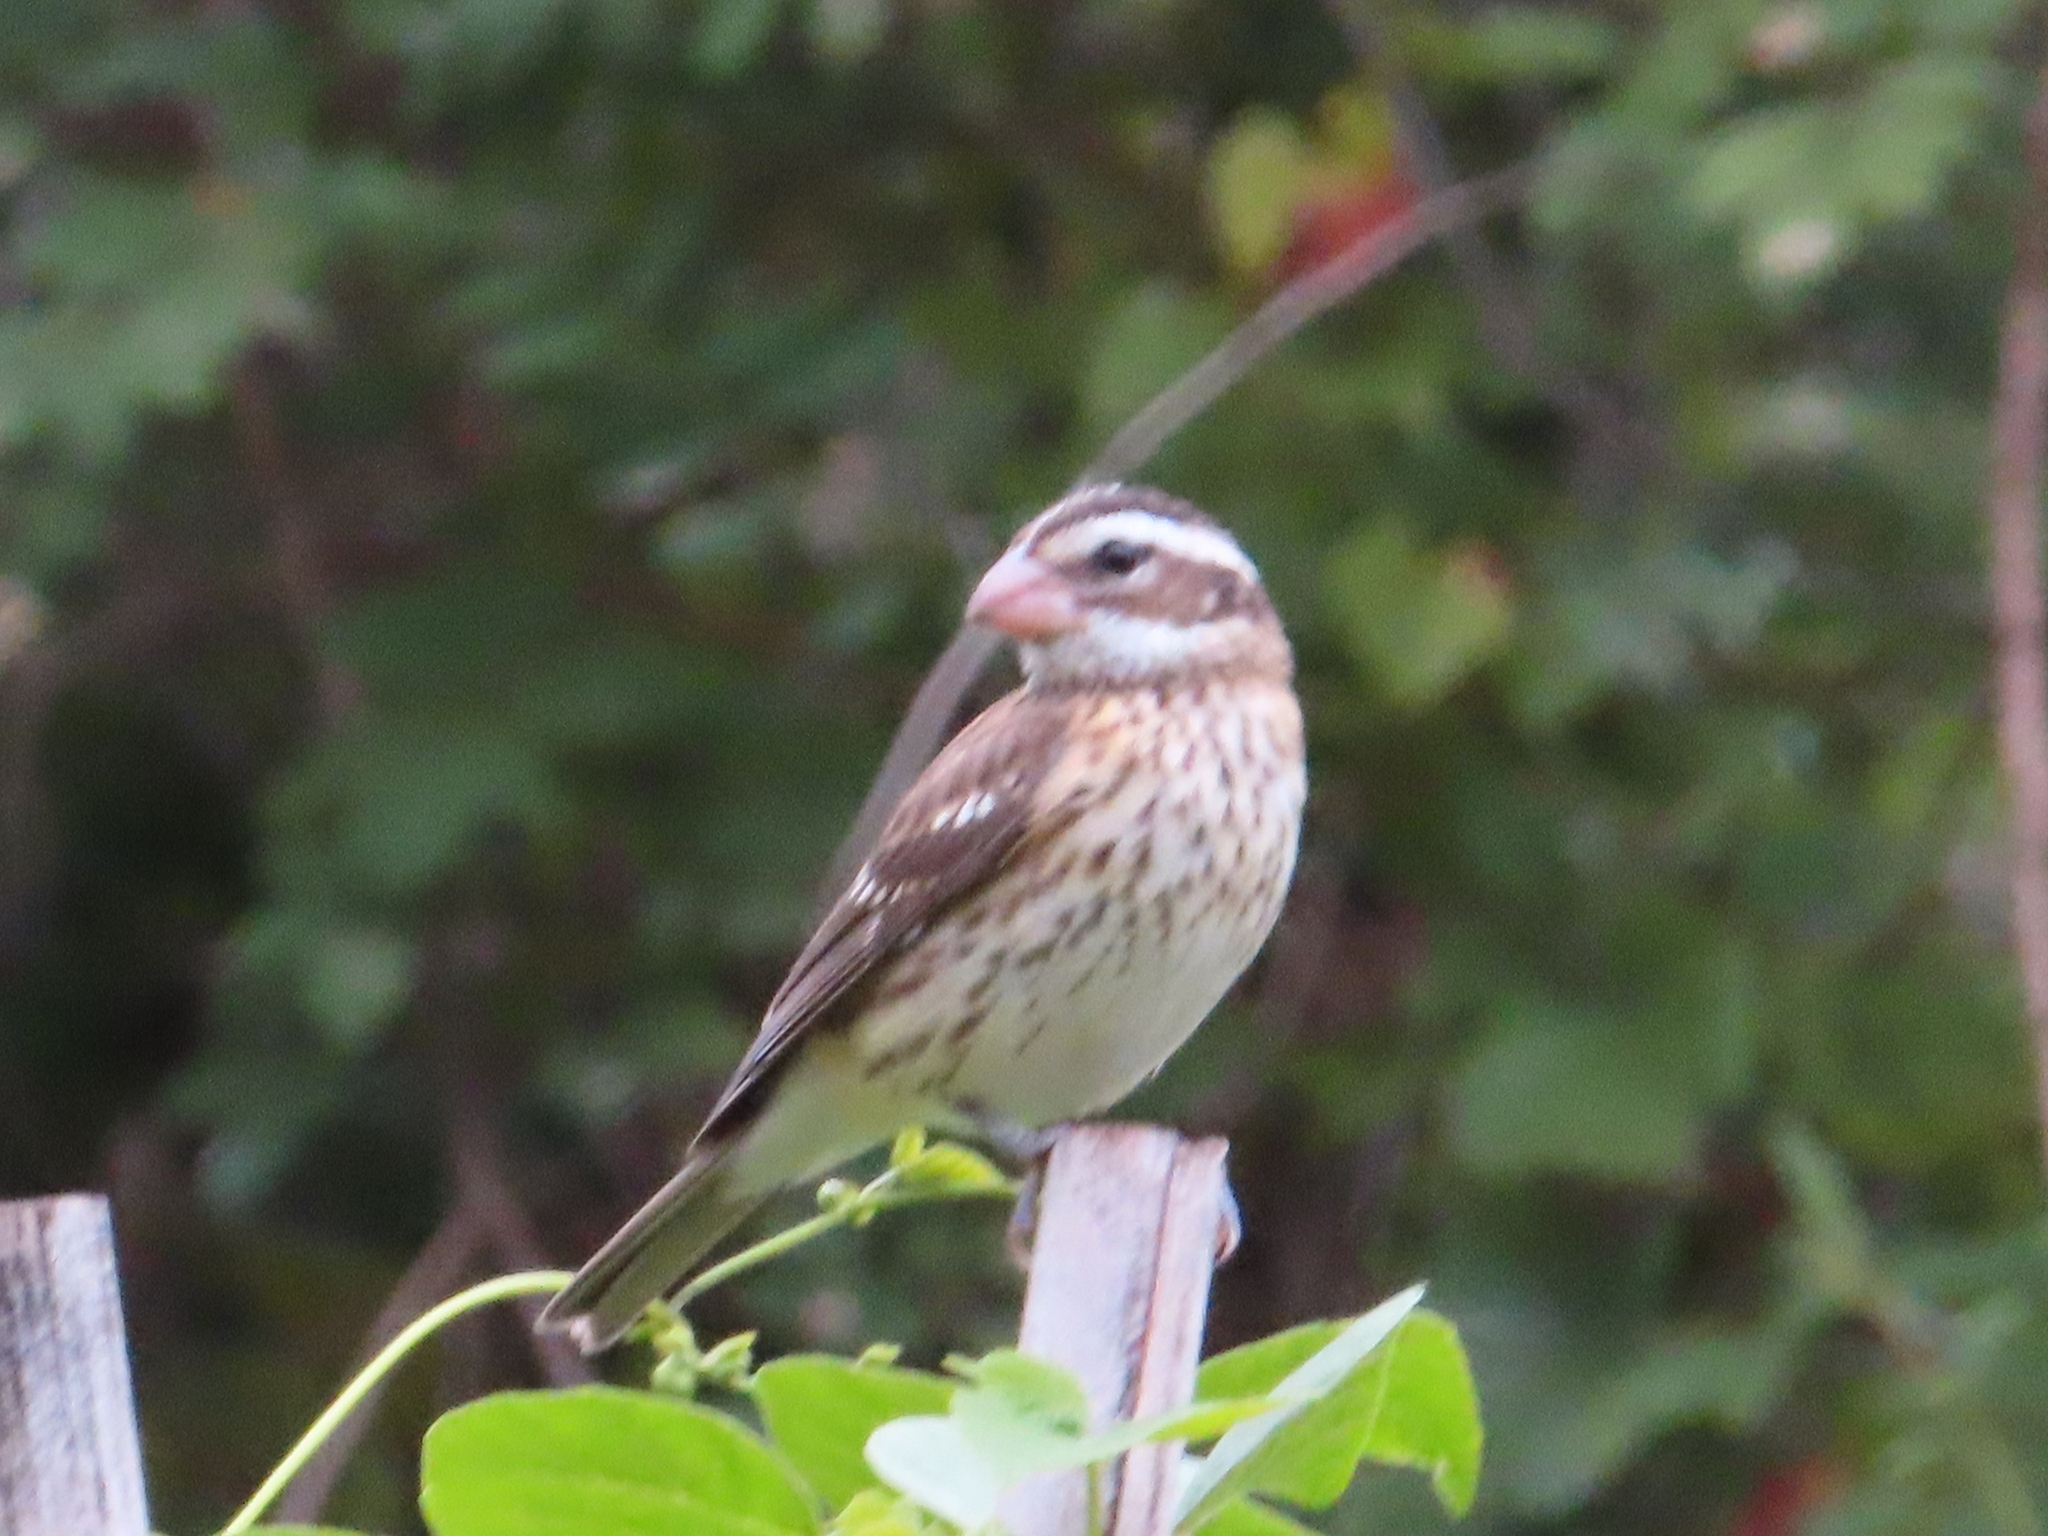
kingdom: Animalia
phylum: Chordata
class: Aves
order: Passeriformes
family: Cardinalidae
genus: Pheucticus
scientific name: Pheucticus ludovicianus
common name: Rose-breasted grosbeak
